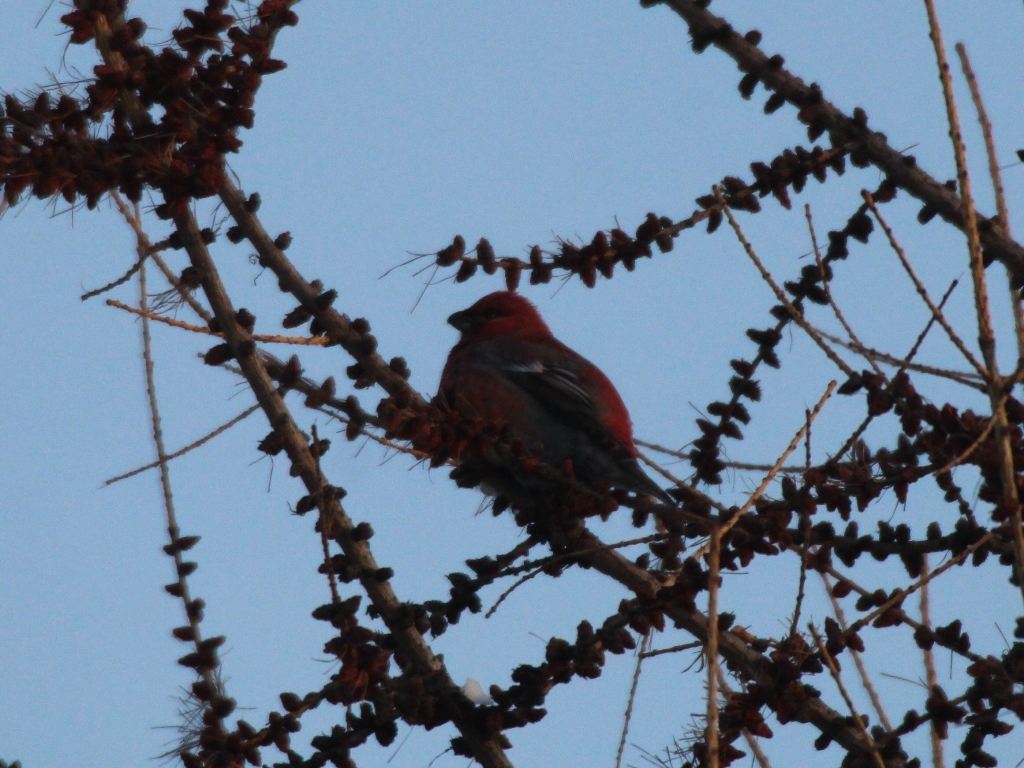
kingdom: Animalia
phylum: Chordata
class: Aves
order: Passeriformes
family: Fringillidae
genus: Pinicola
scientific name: Pinicola enucleator
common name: Pine grosbeak
